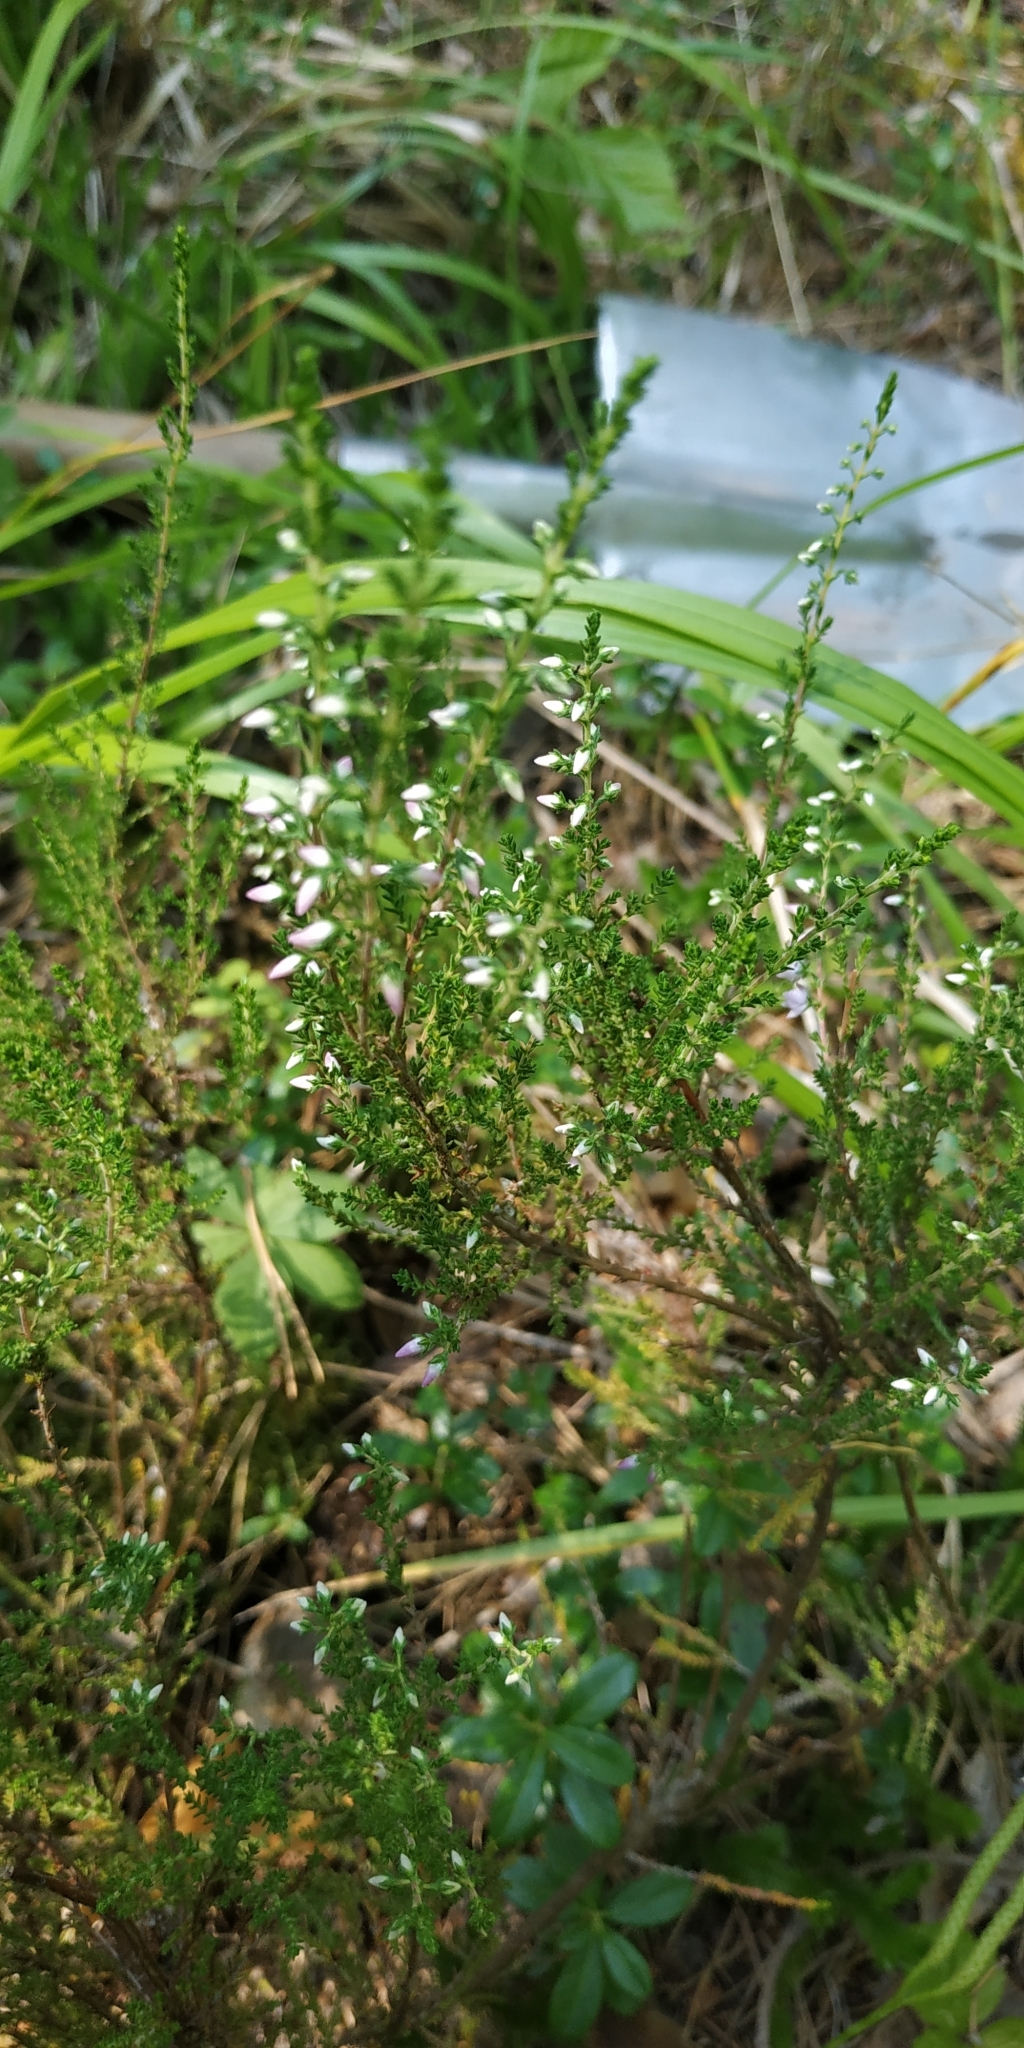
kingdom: Plantae
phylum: Tracheophyta
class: Magnoliopsida
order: Ericales
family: Ericaceae
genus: Calluna
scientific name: Calluna vulgaris
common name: Heather
